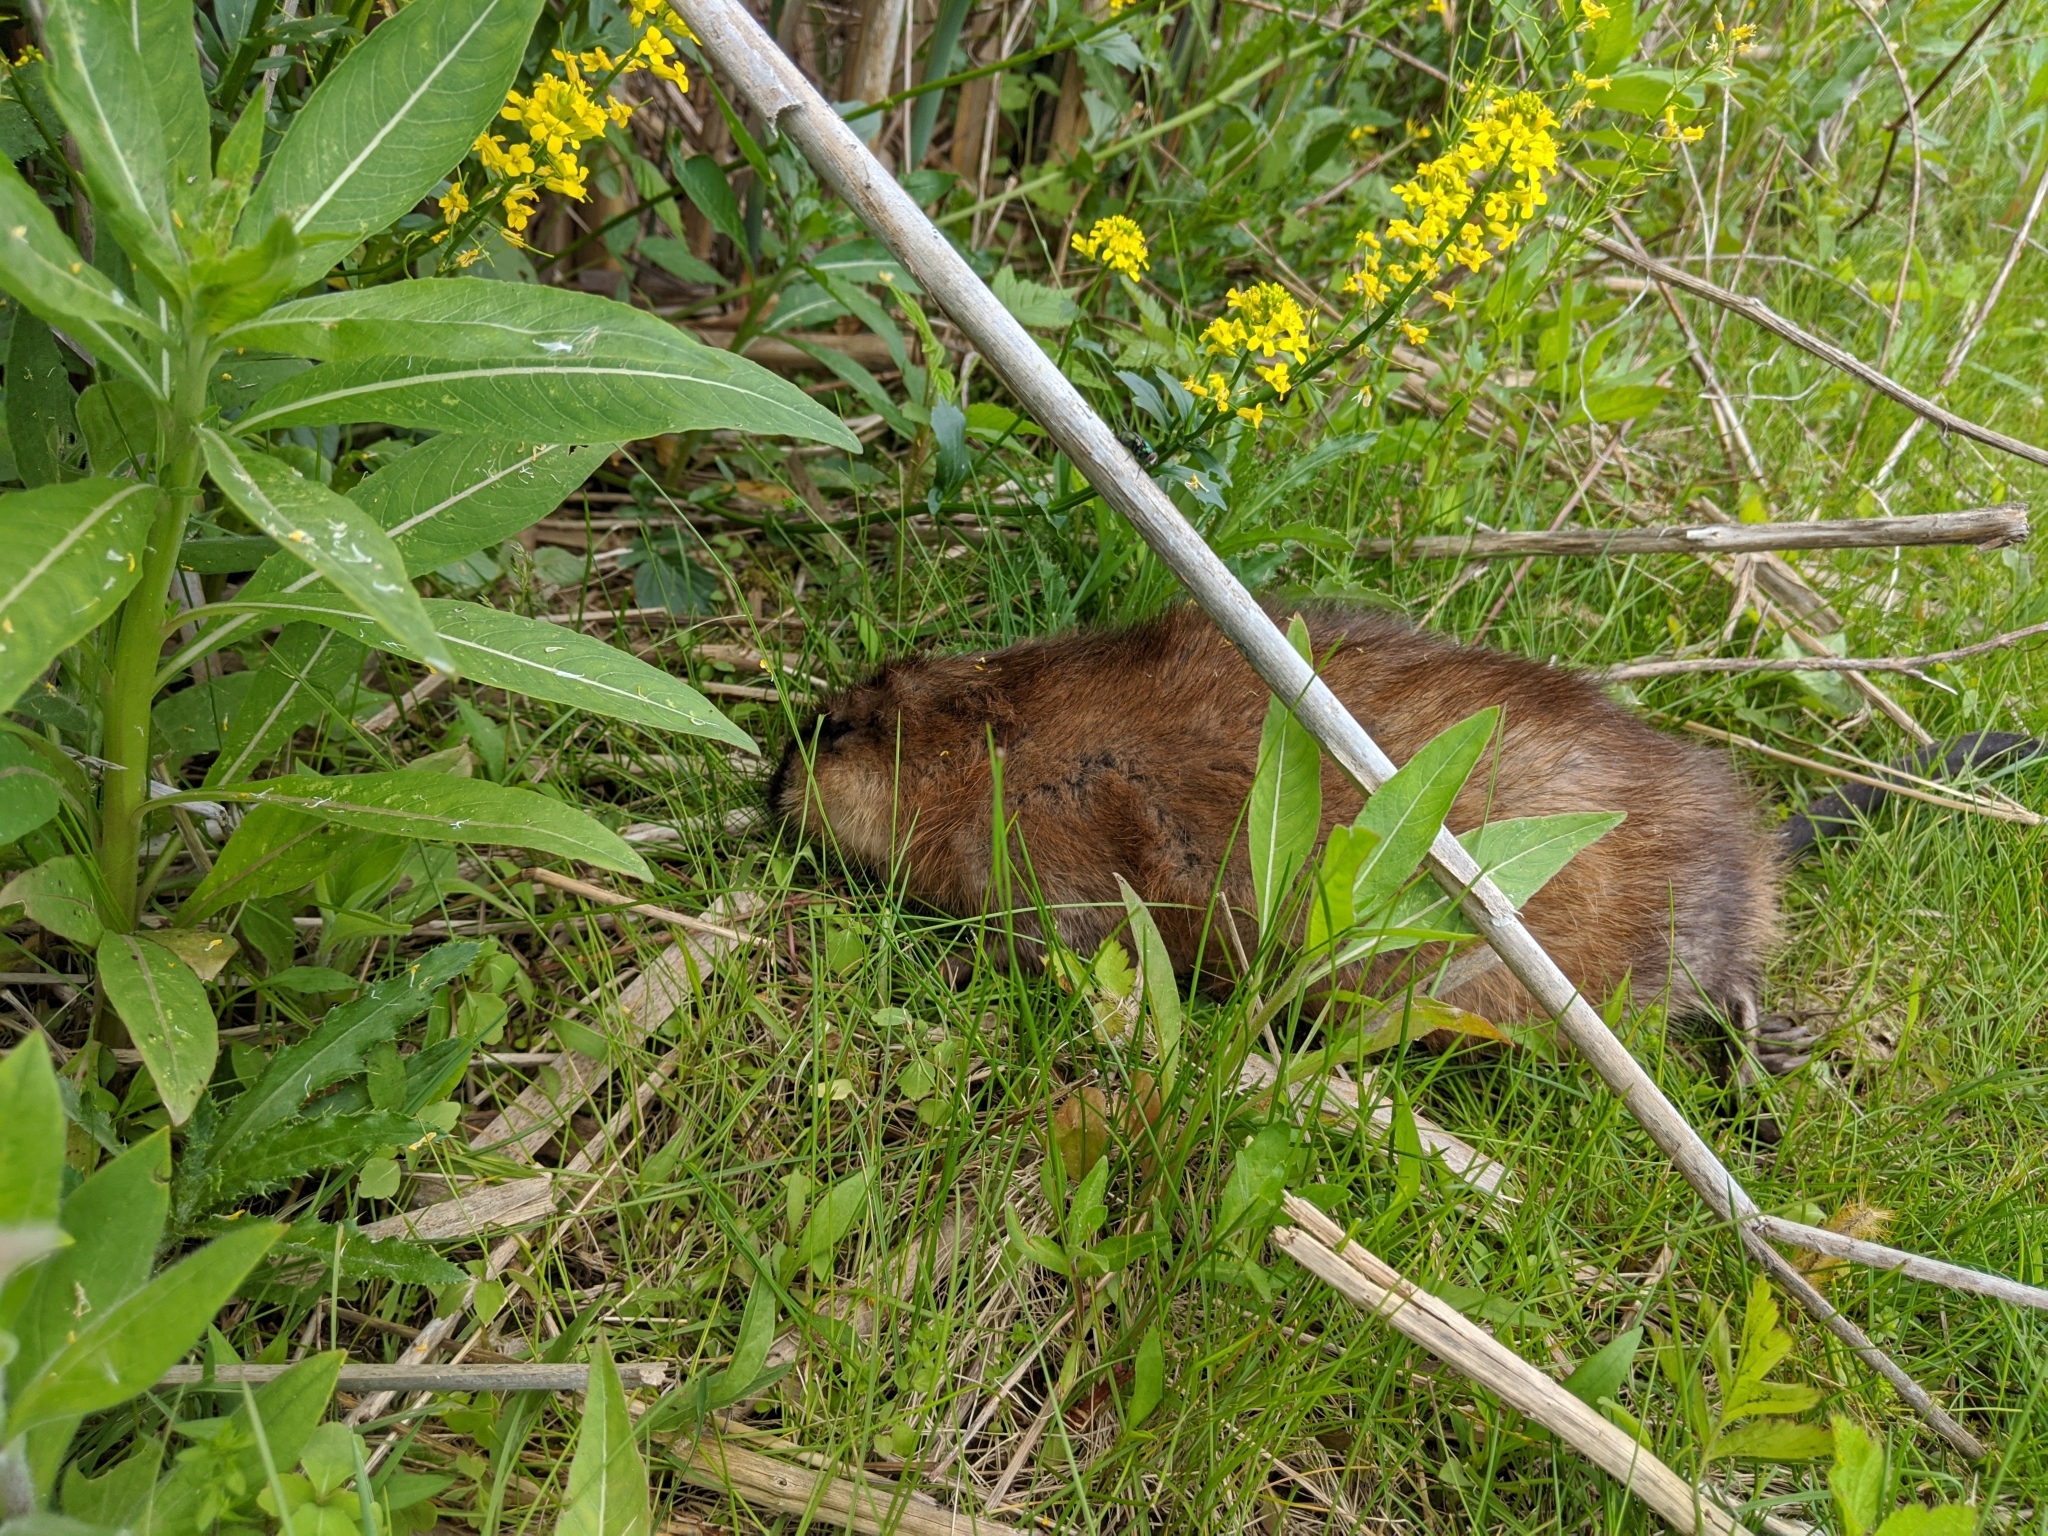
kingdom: Animalia
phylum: Chordata
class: Mammalia
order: Rodentia
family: Cricetidae
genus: Ondatra
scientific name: Ondatra zibethicus
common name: Muskrat
